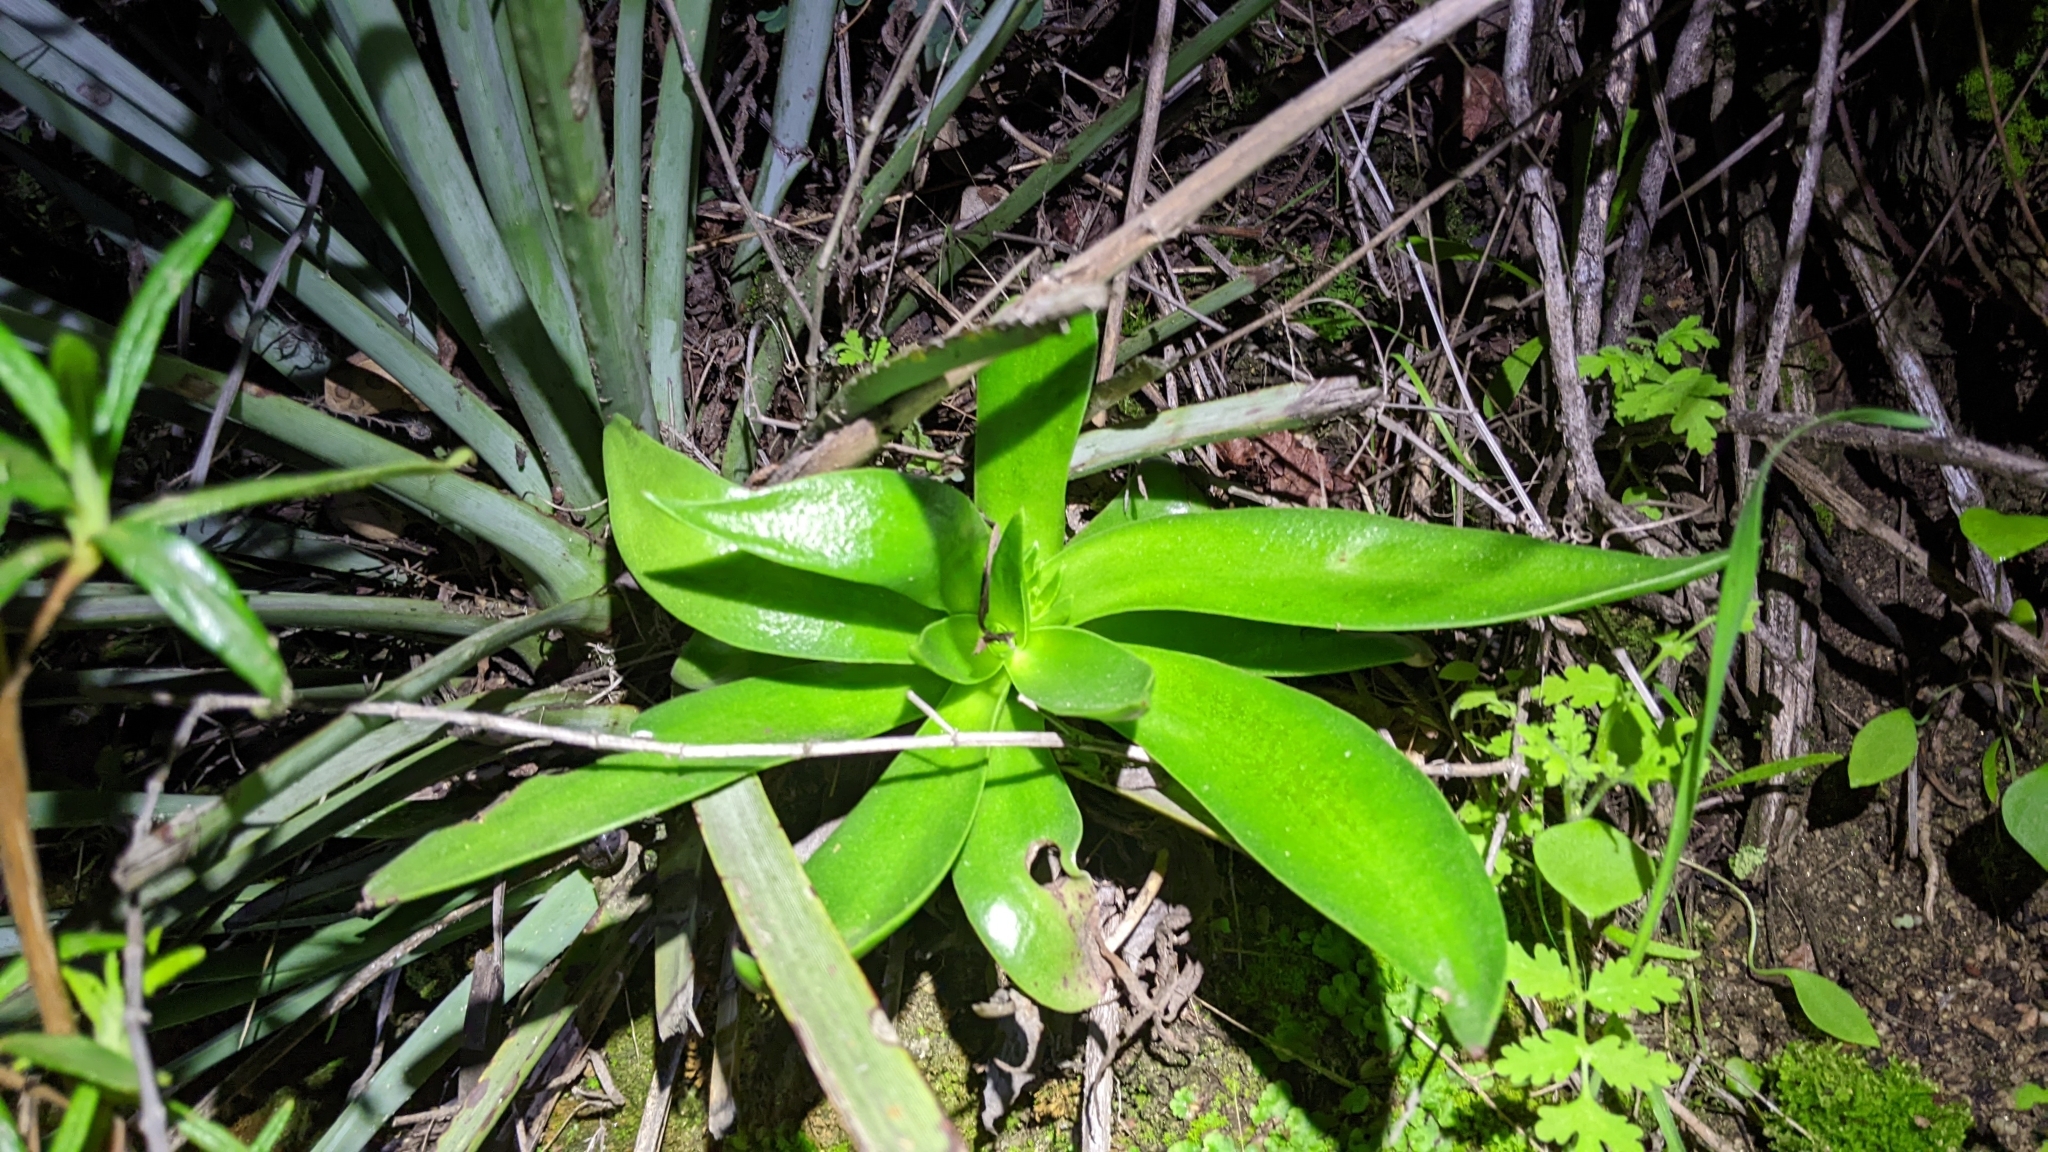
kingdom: Plantae
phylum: Tracheophyta
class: Magnoliopsida
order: Saxifragales
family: Crassulaceae
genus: Dudleya
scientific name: Dudleya lanceolata
